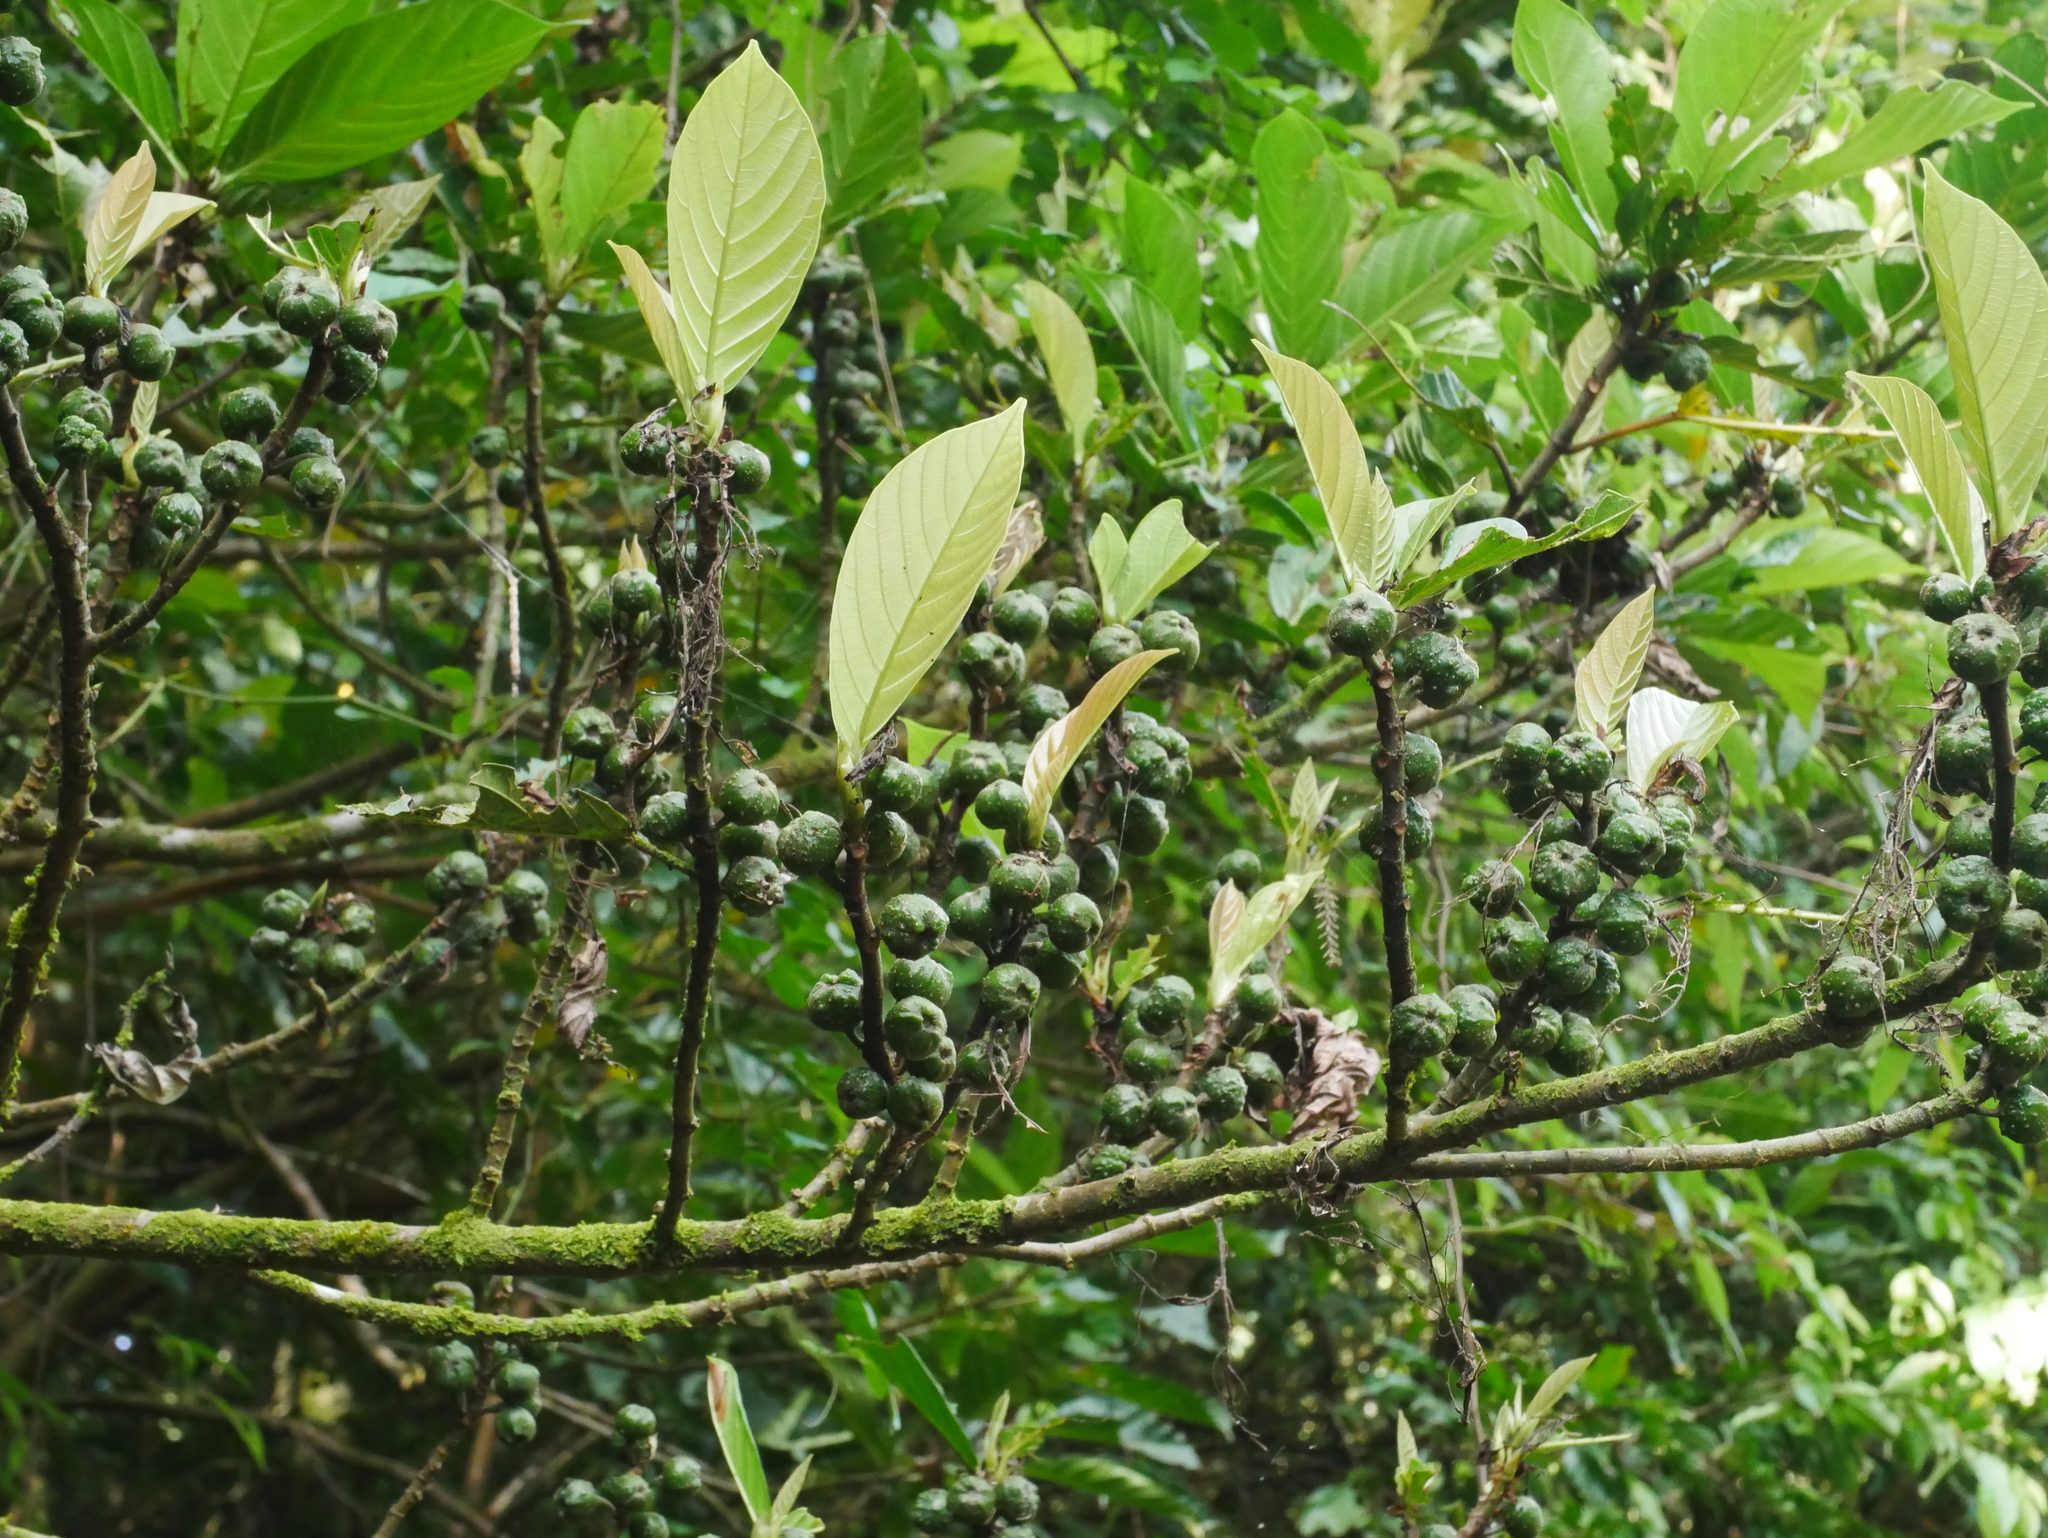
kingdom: Plantae
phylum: Tracheophyta
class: Magnoliopsida
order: Rosales
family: Moraceae
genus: Ficus
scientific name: Ficus fistulosa
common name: Figs
